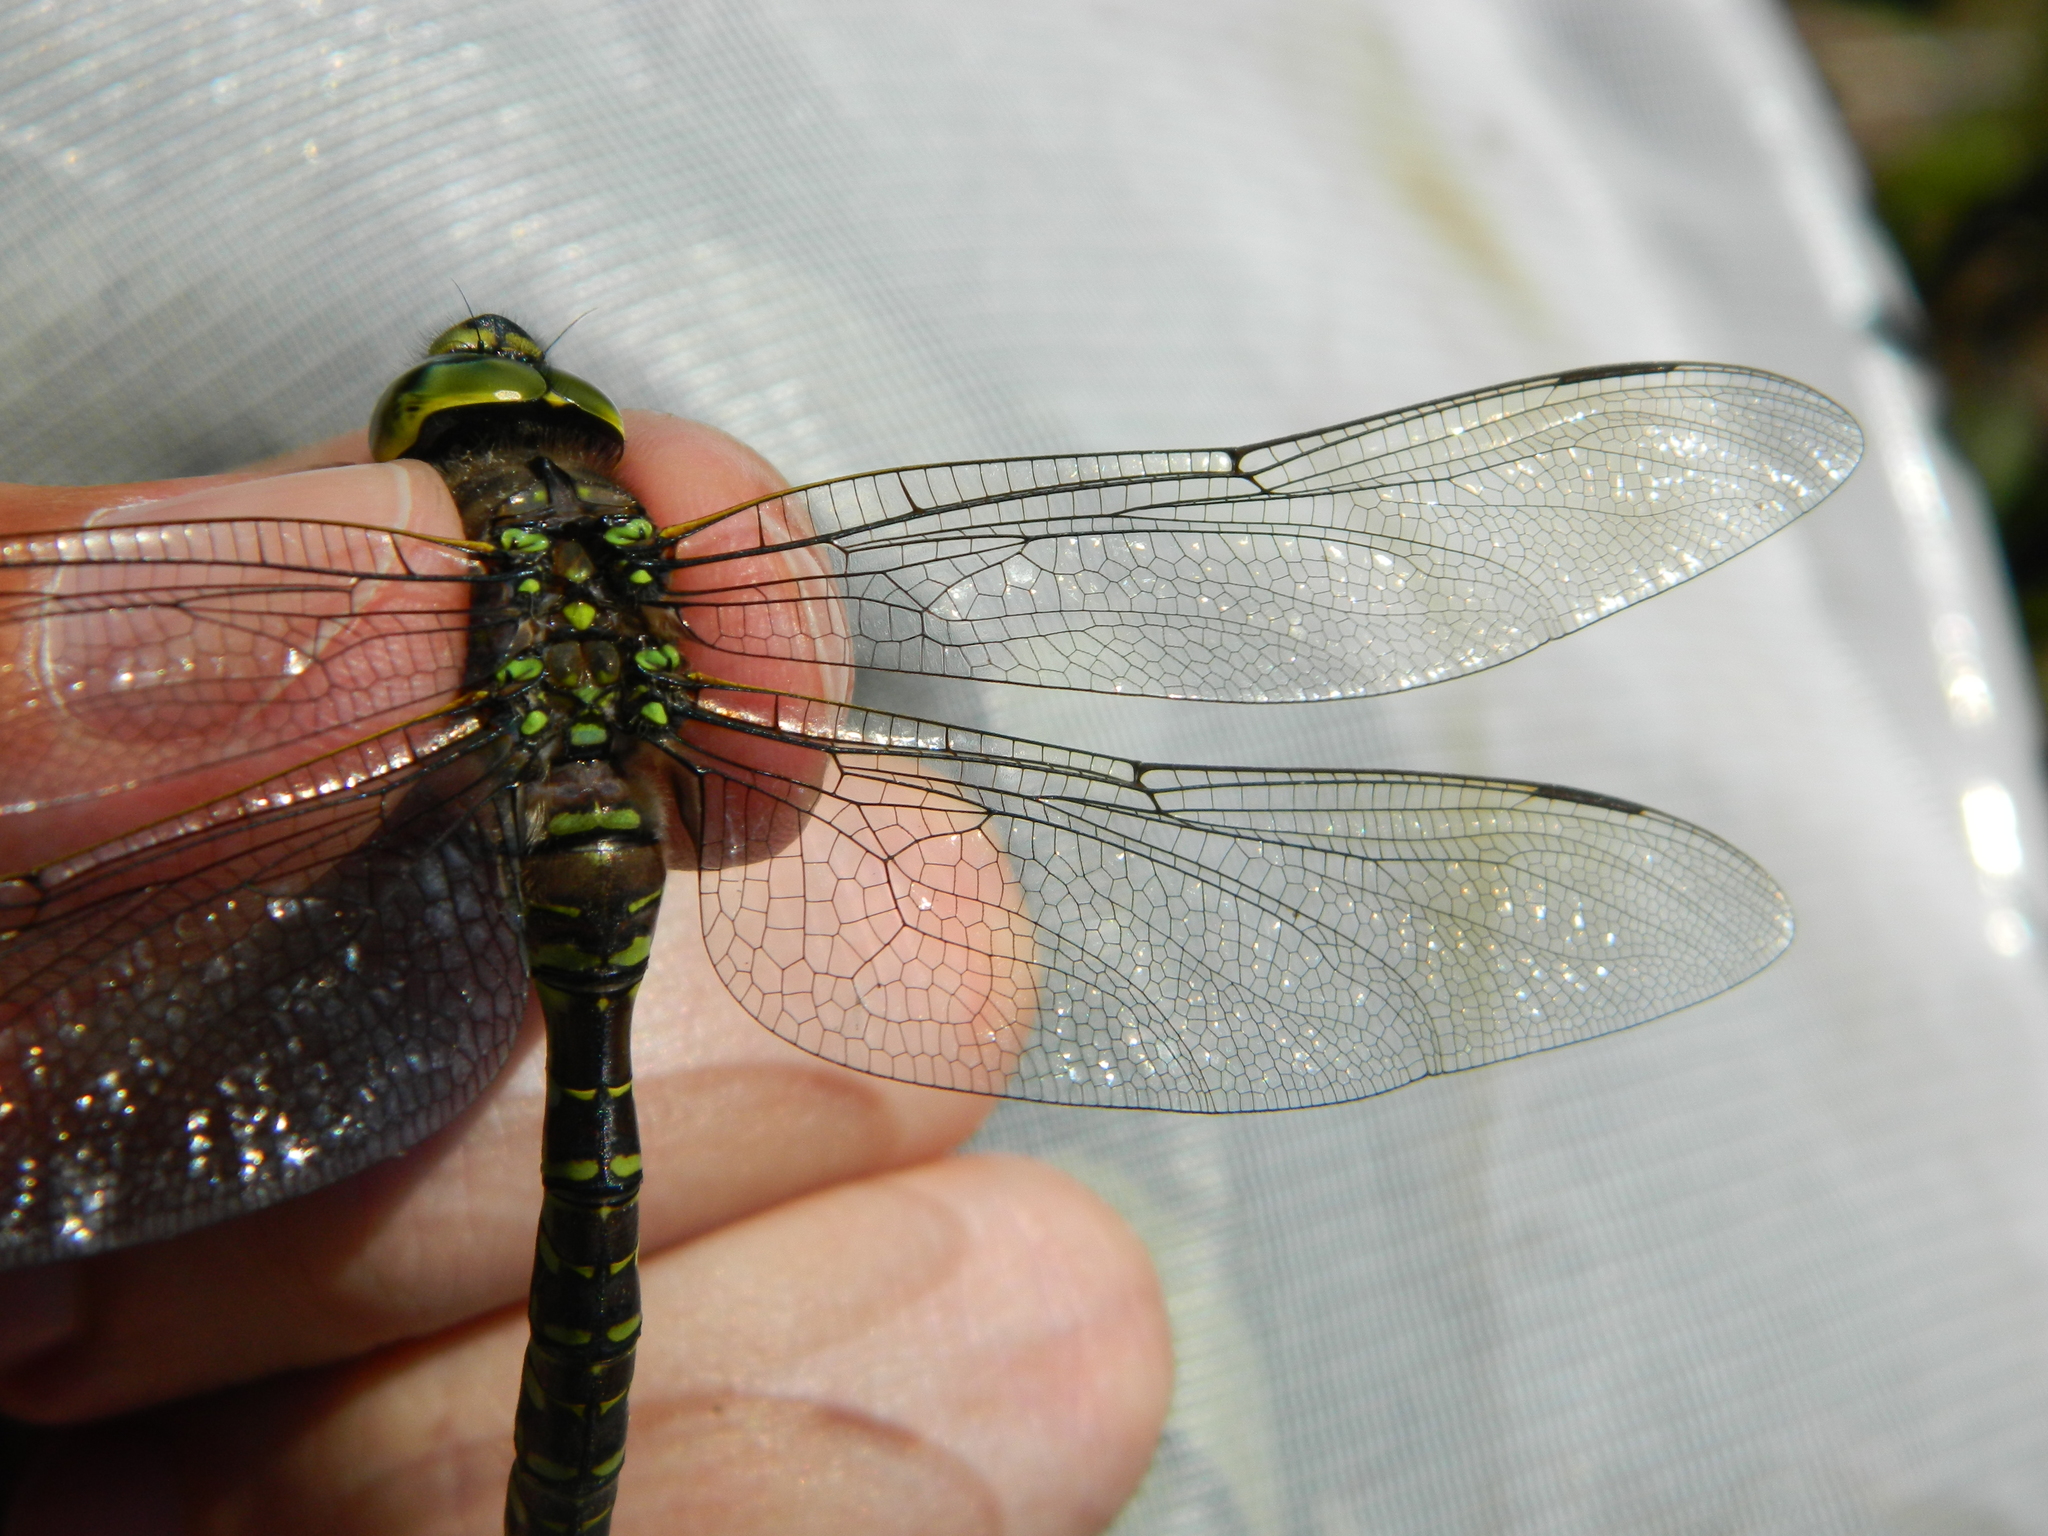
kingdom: Animalia
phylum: Arthropoda
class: Insecta
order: Odonata
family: Aeshnidae
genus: Aeshna
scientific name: Aeshna eremita
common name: Lake darner
